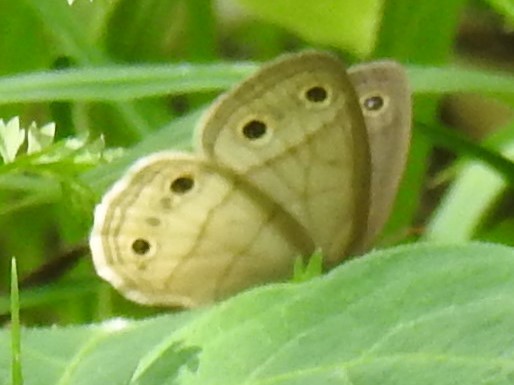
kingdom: Animalia
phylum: Arthropoda
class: Insecta
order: Lepidoptera
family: Nymphalidae
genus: Euptychia
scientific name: Euptychia cymela
